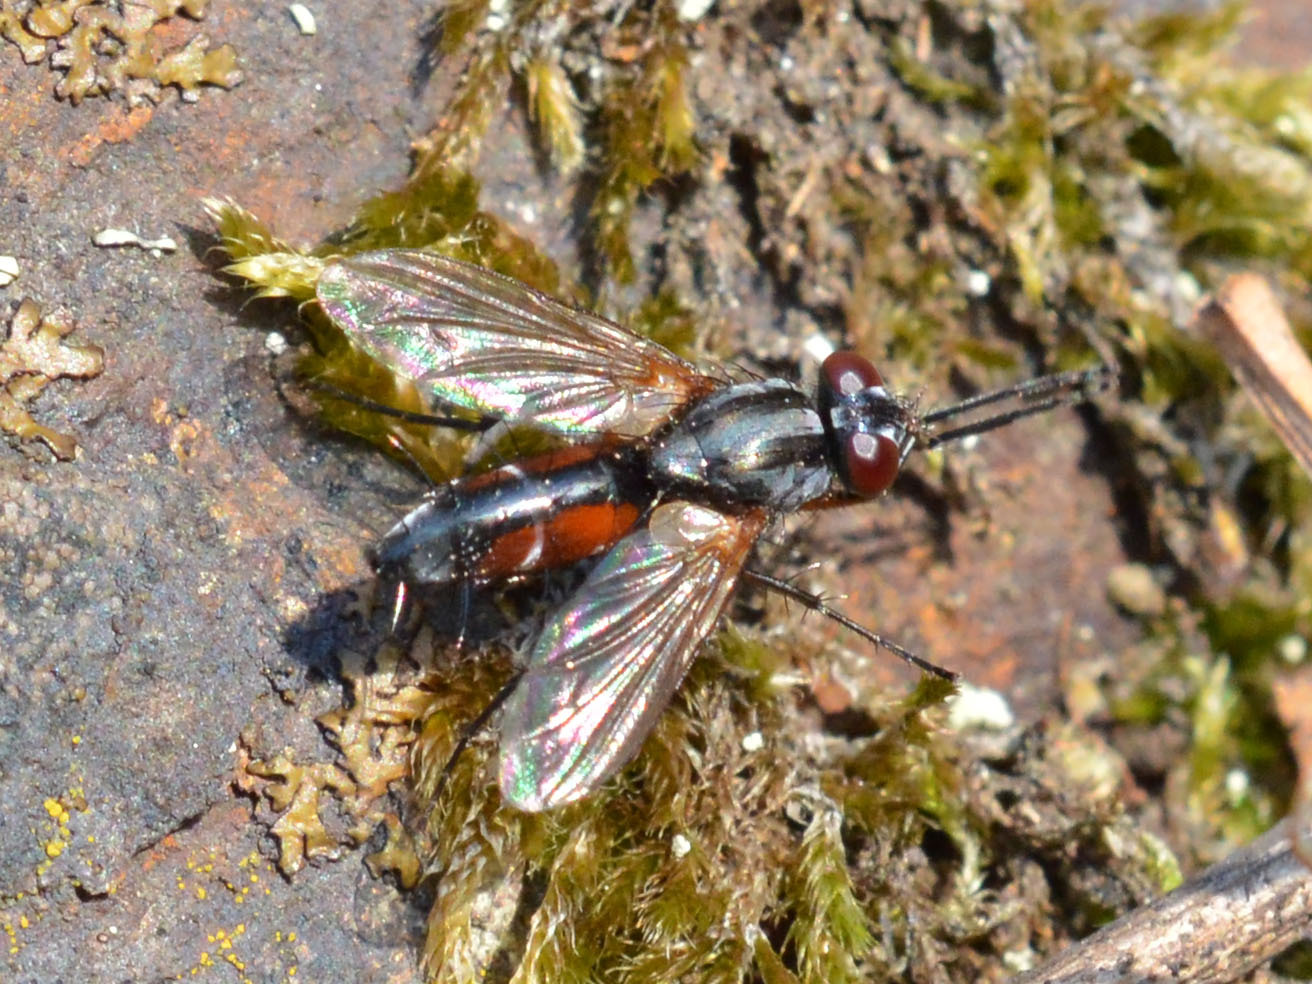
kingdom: Animalia
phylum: Arthropoda
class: Insecta
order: Diptera
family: Tachinidae
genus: Mintho
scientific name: Mintho rufiventris
